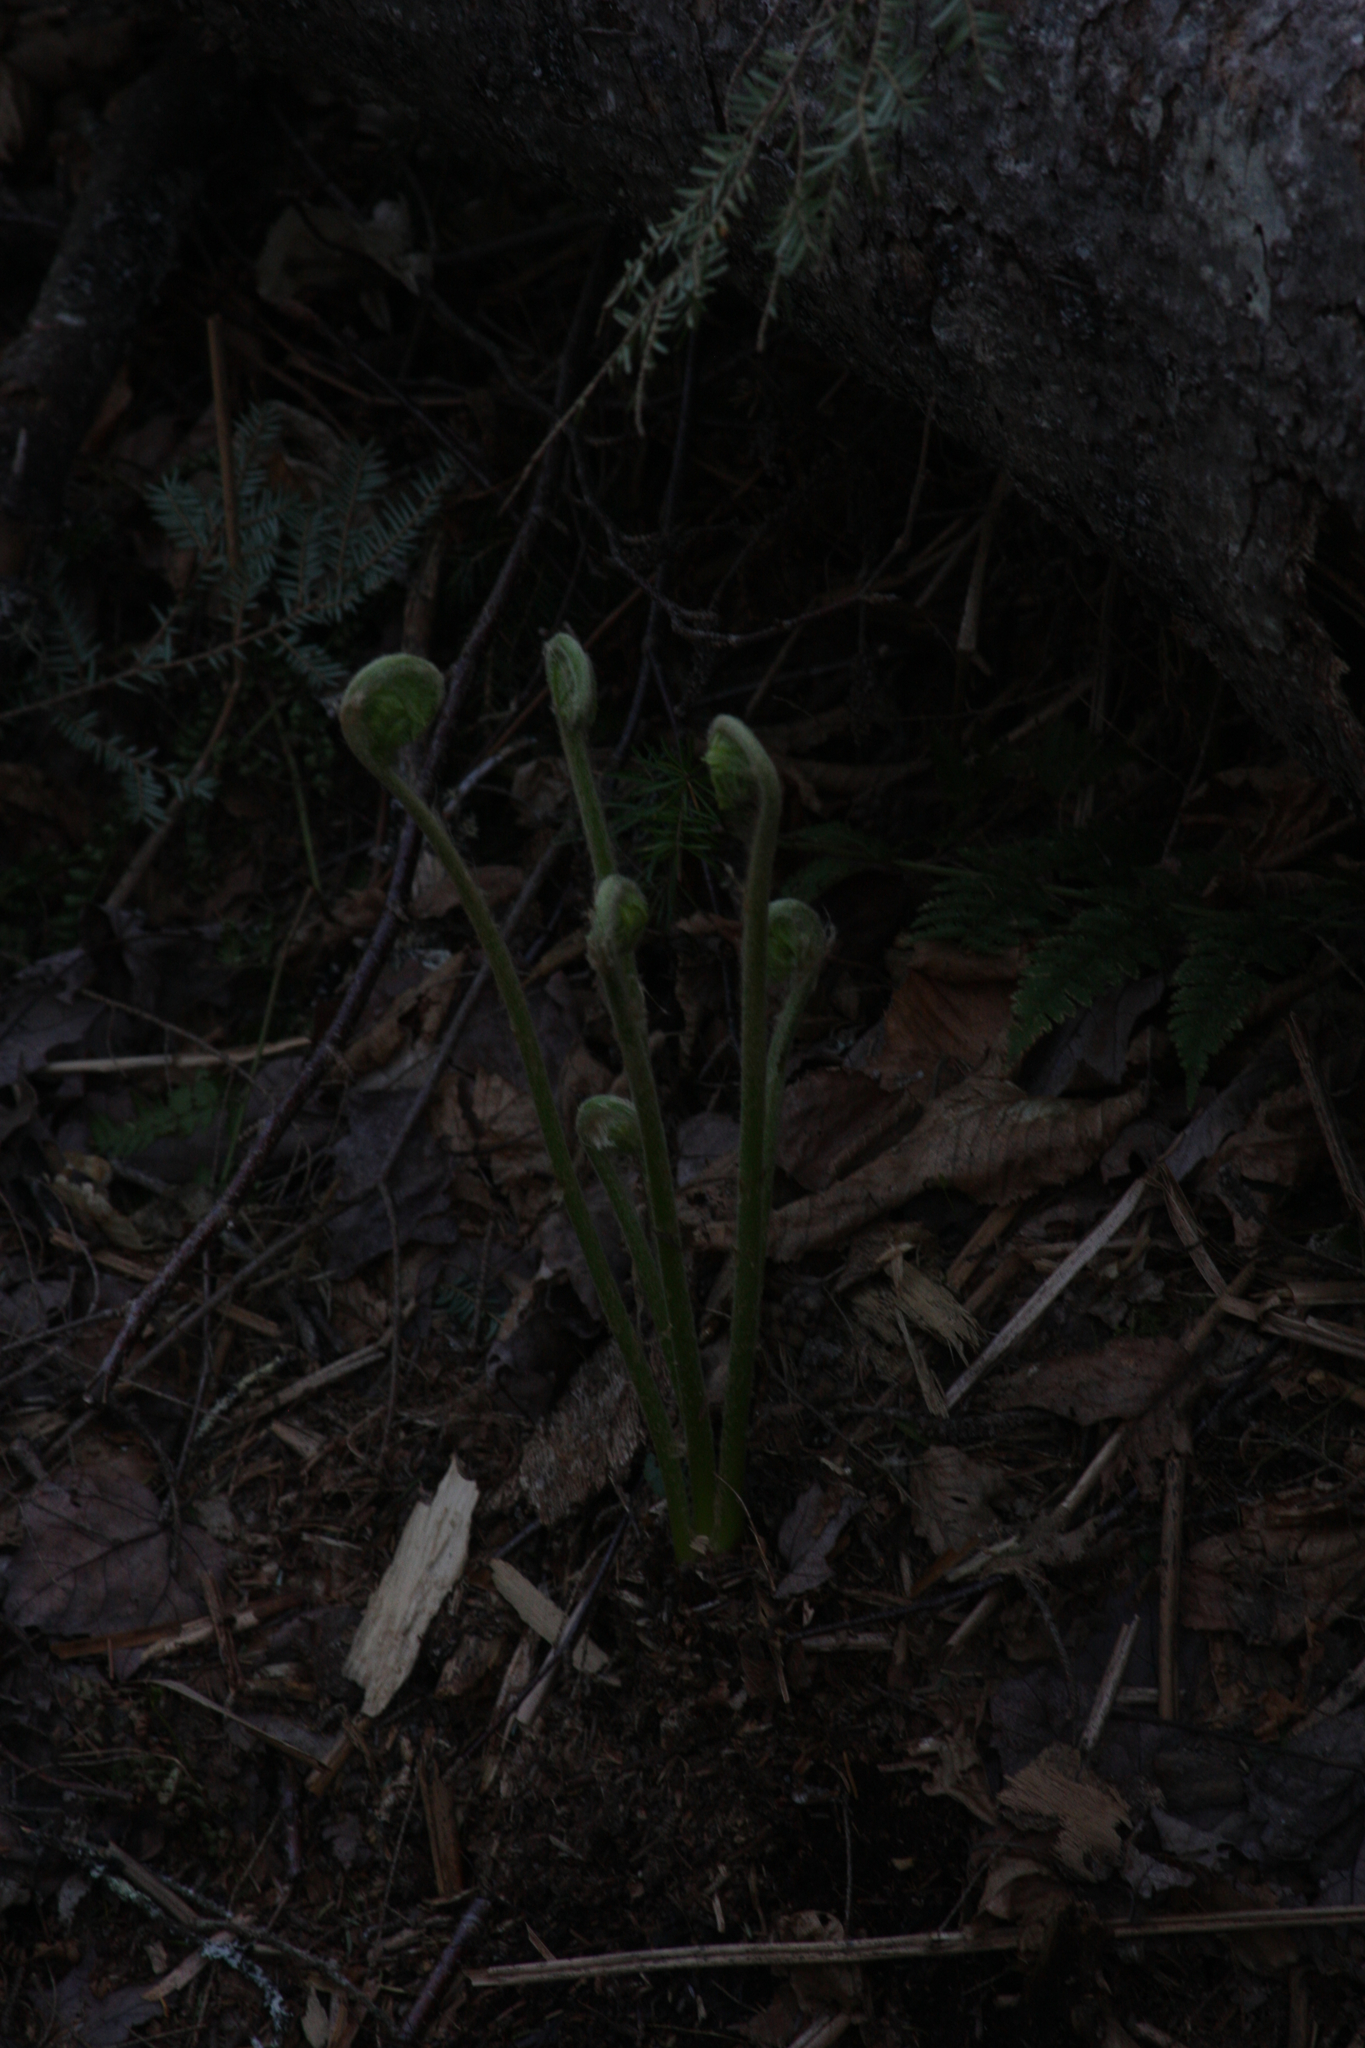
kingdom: Plantae
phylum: Tracheophyta
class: Polypodiopsida
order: Osmundales
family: Osmundaceae
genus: Claytosmunda
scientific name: Claytosmunda claytoniana
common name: Clayton's fern
